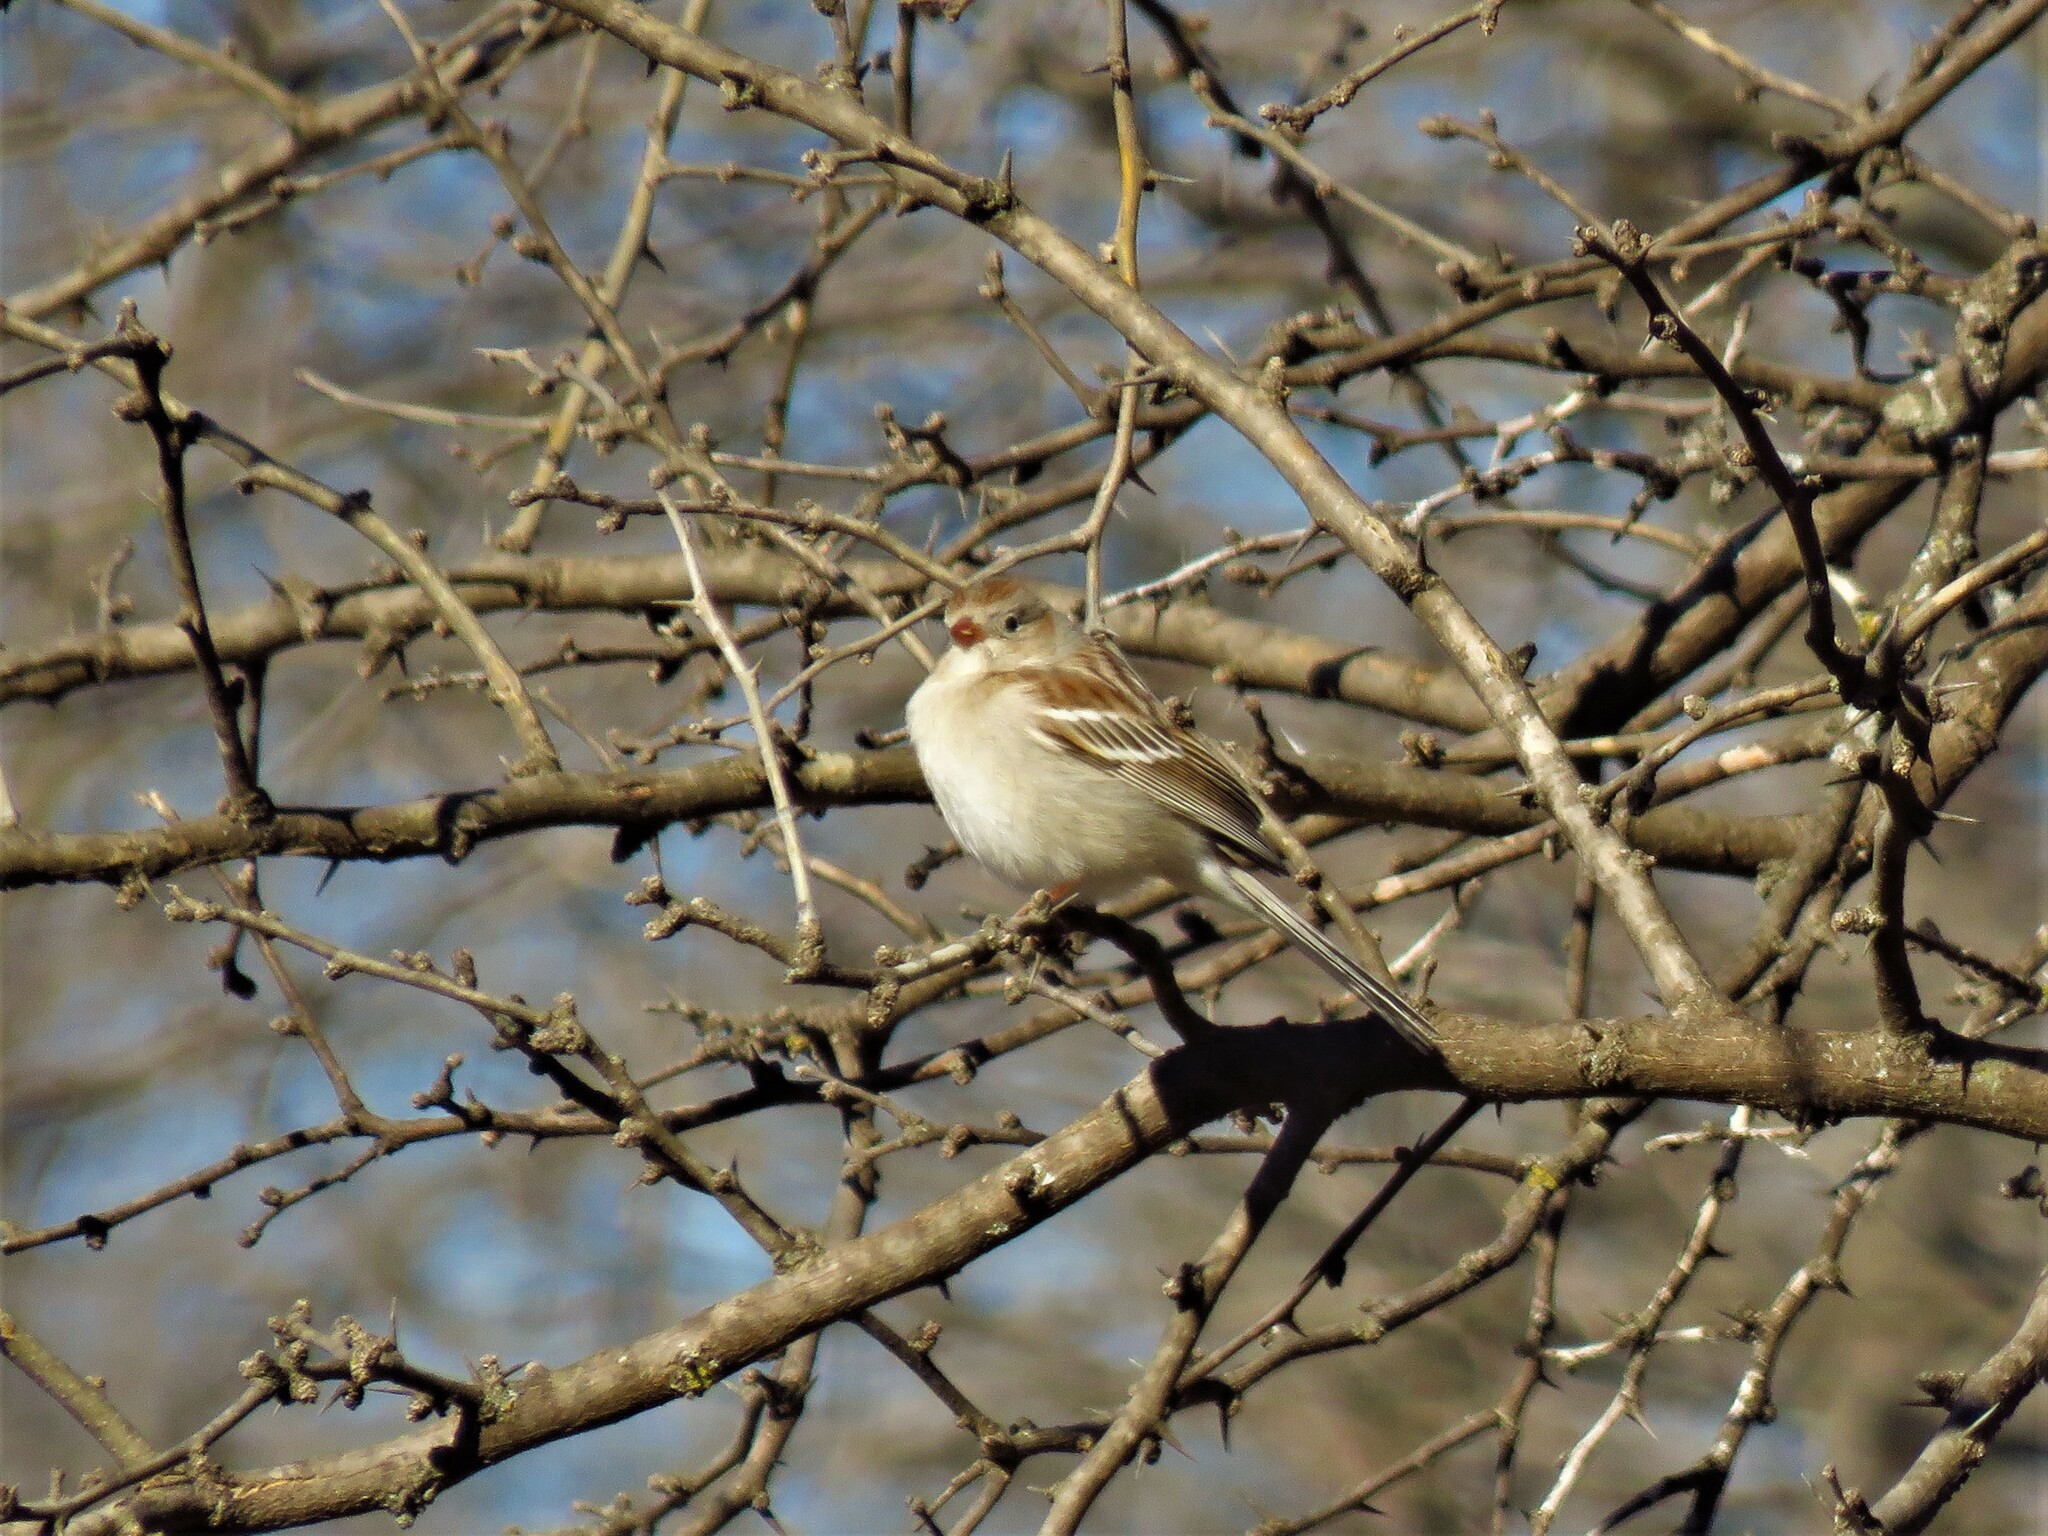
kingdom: Animalia
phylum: Chordata
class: Aves
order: Passeriformes
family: Passerellidae
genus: Spizella
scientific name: Spizella pusilla
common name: Field sparrow
